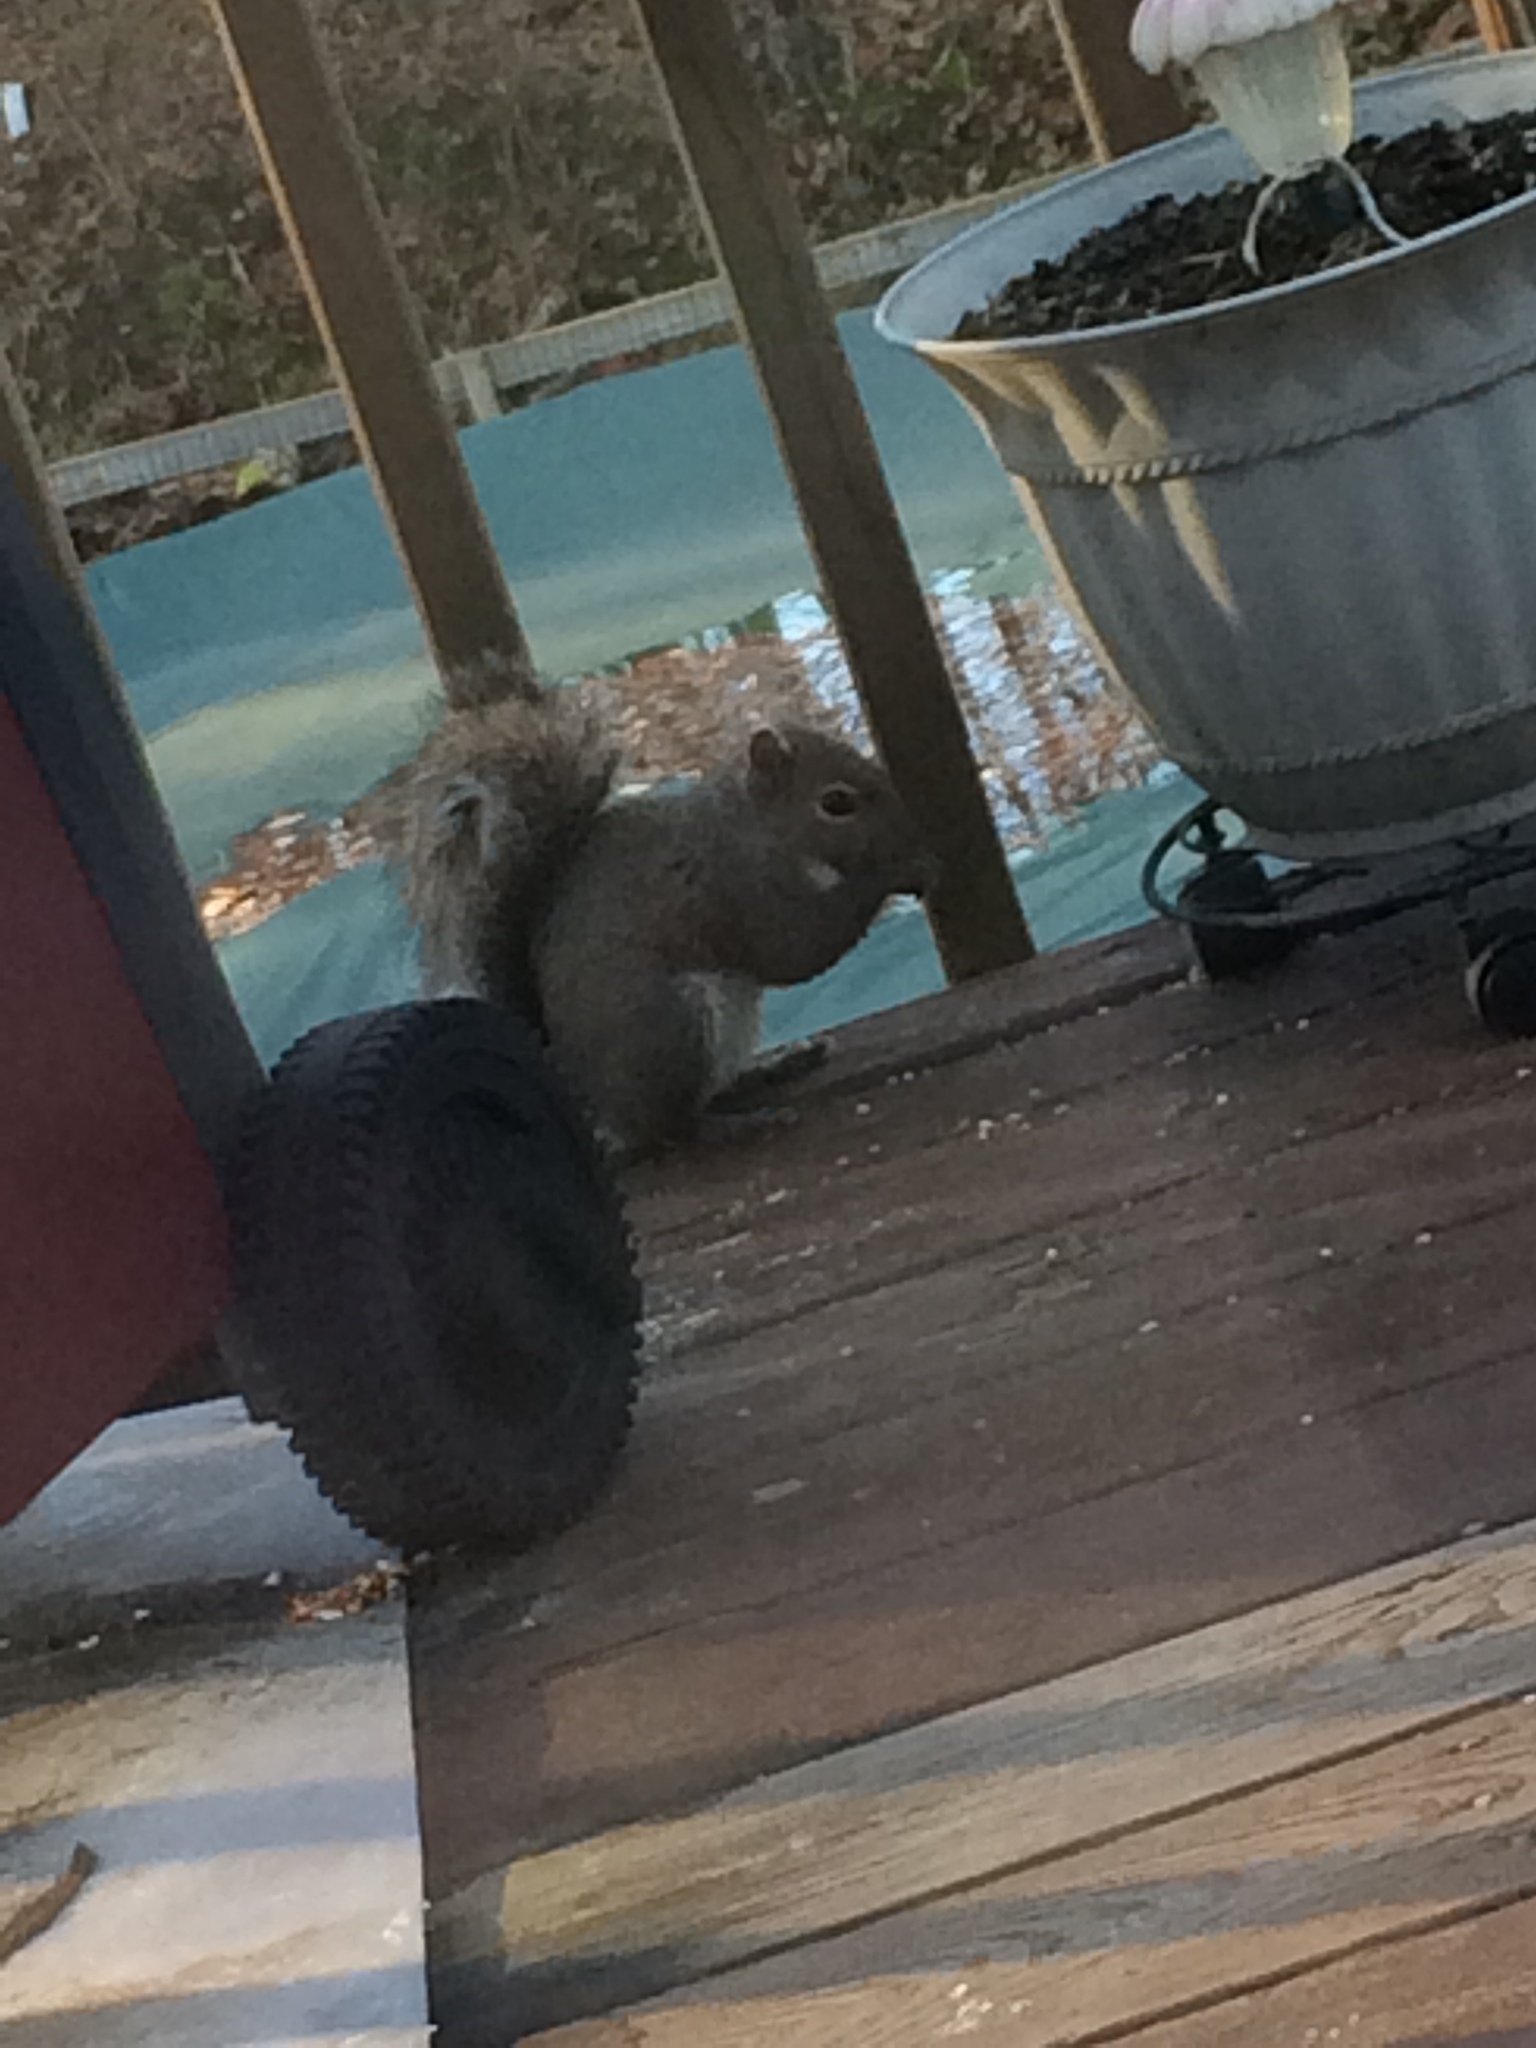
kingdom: Animalia
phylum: Chordata
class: Mammalia
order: Rodentia
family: Sciuridae
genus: Sciurus
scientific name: Sciurus carolinensis
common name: Eastern gray squirrel
